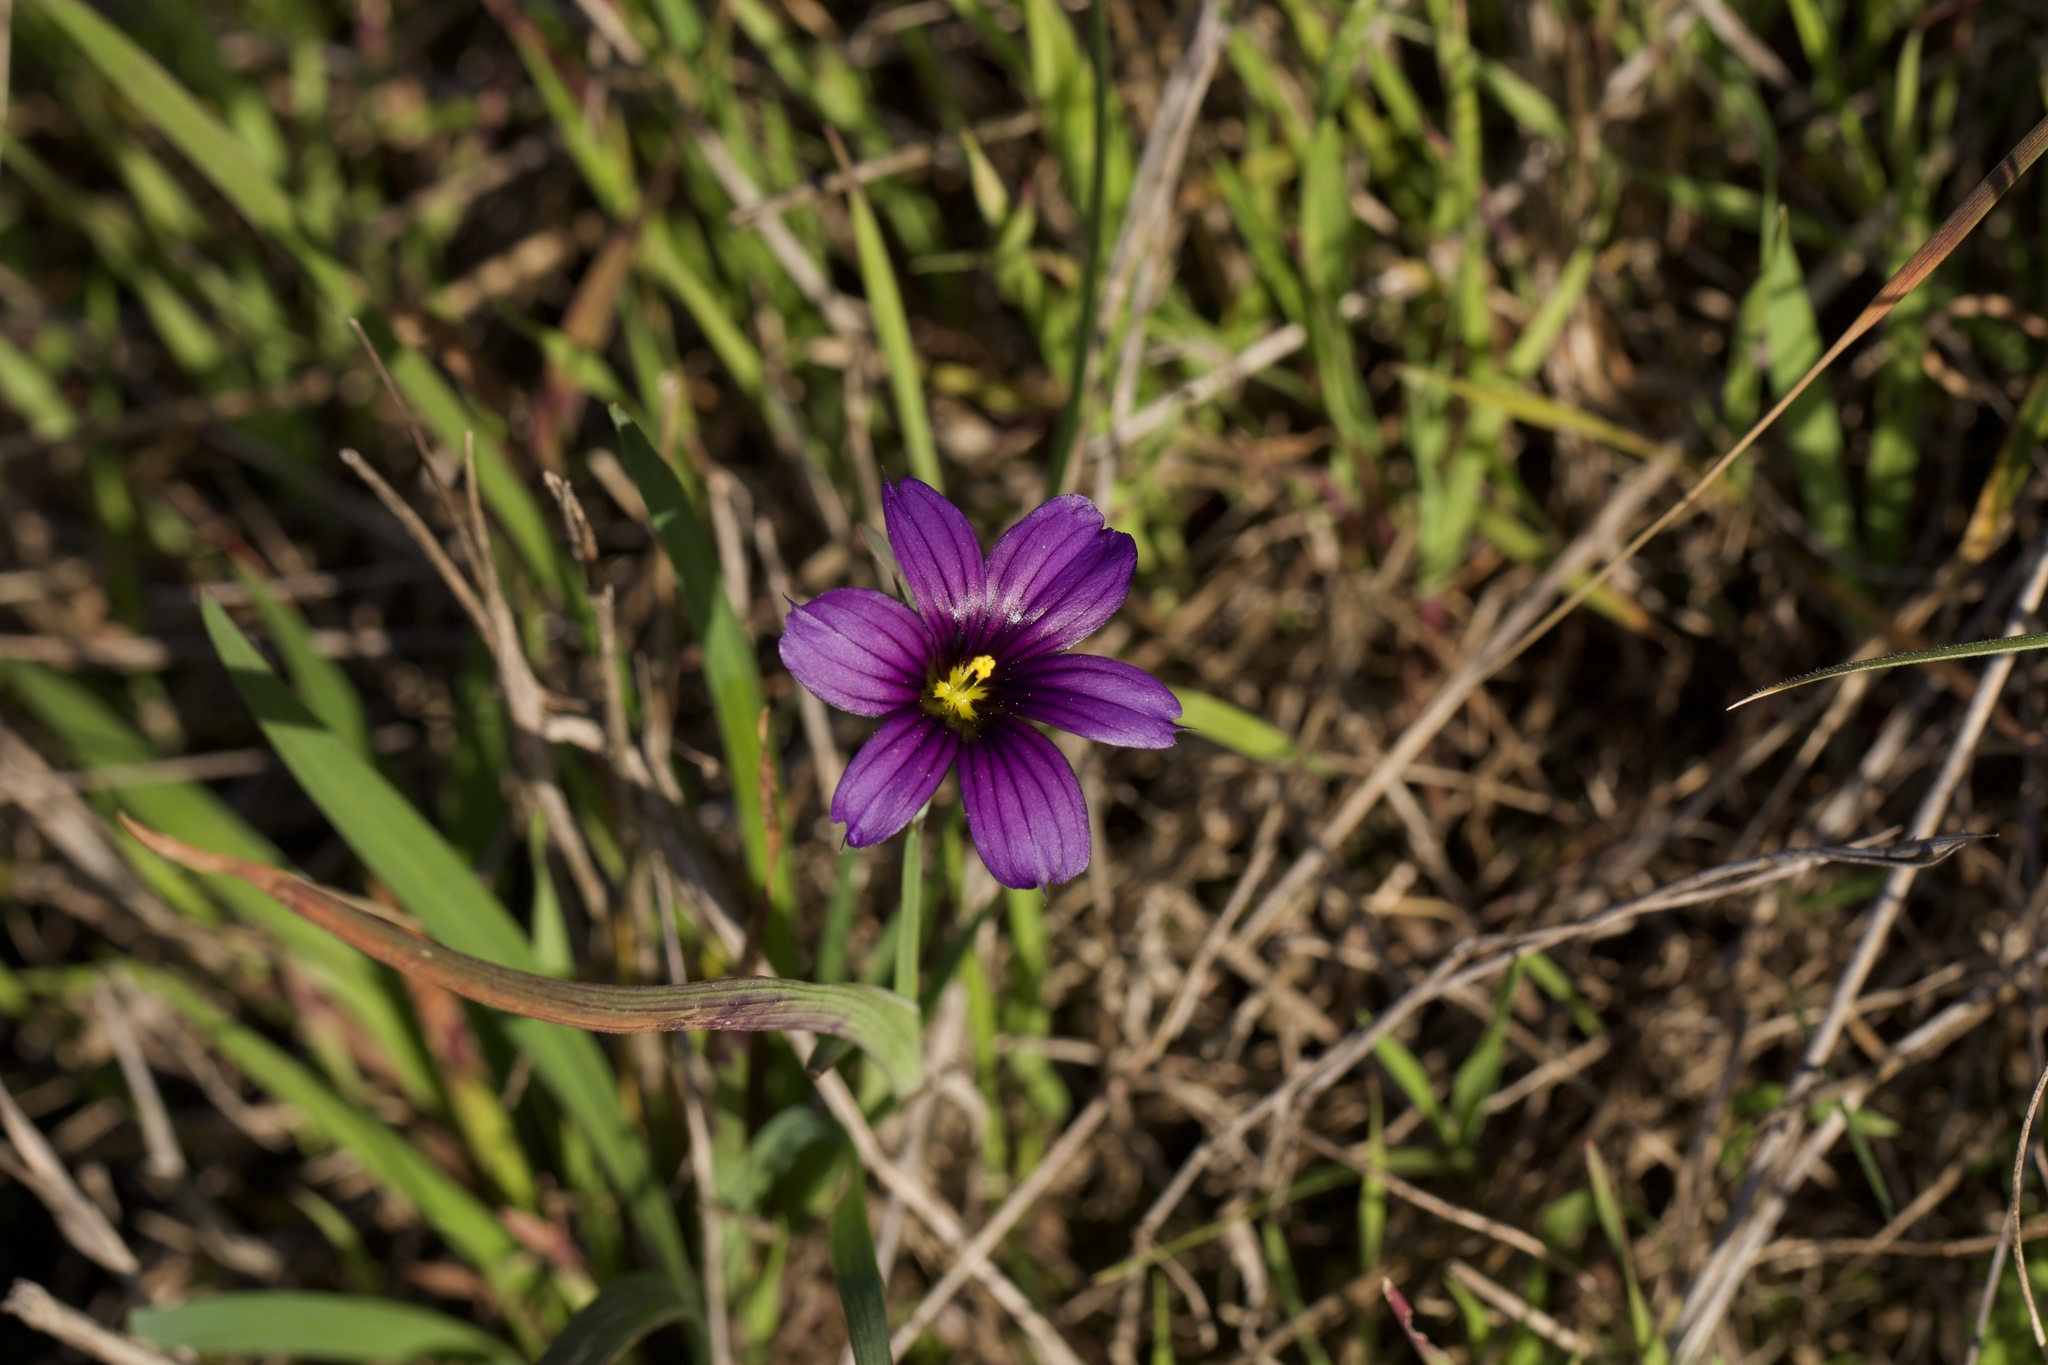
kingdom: Plantae
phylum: Tracheophyta
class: Liliopsida
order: Asparagales
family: Iridaceae
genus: Sisyrinchium
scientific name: Sisyrinchium bellum
